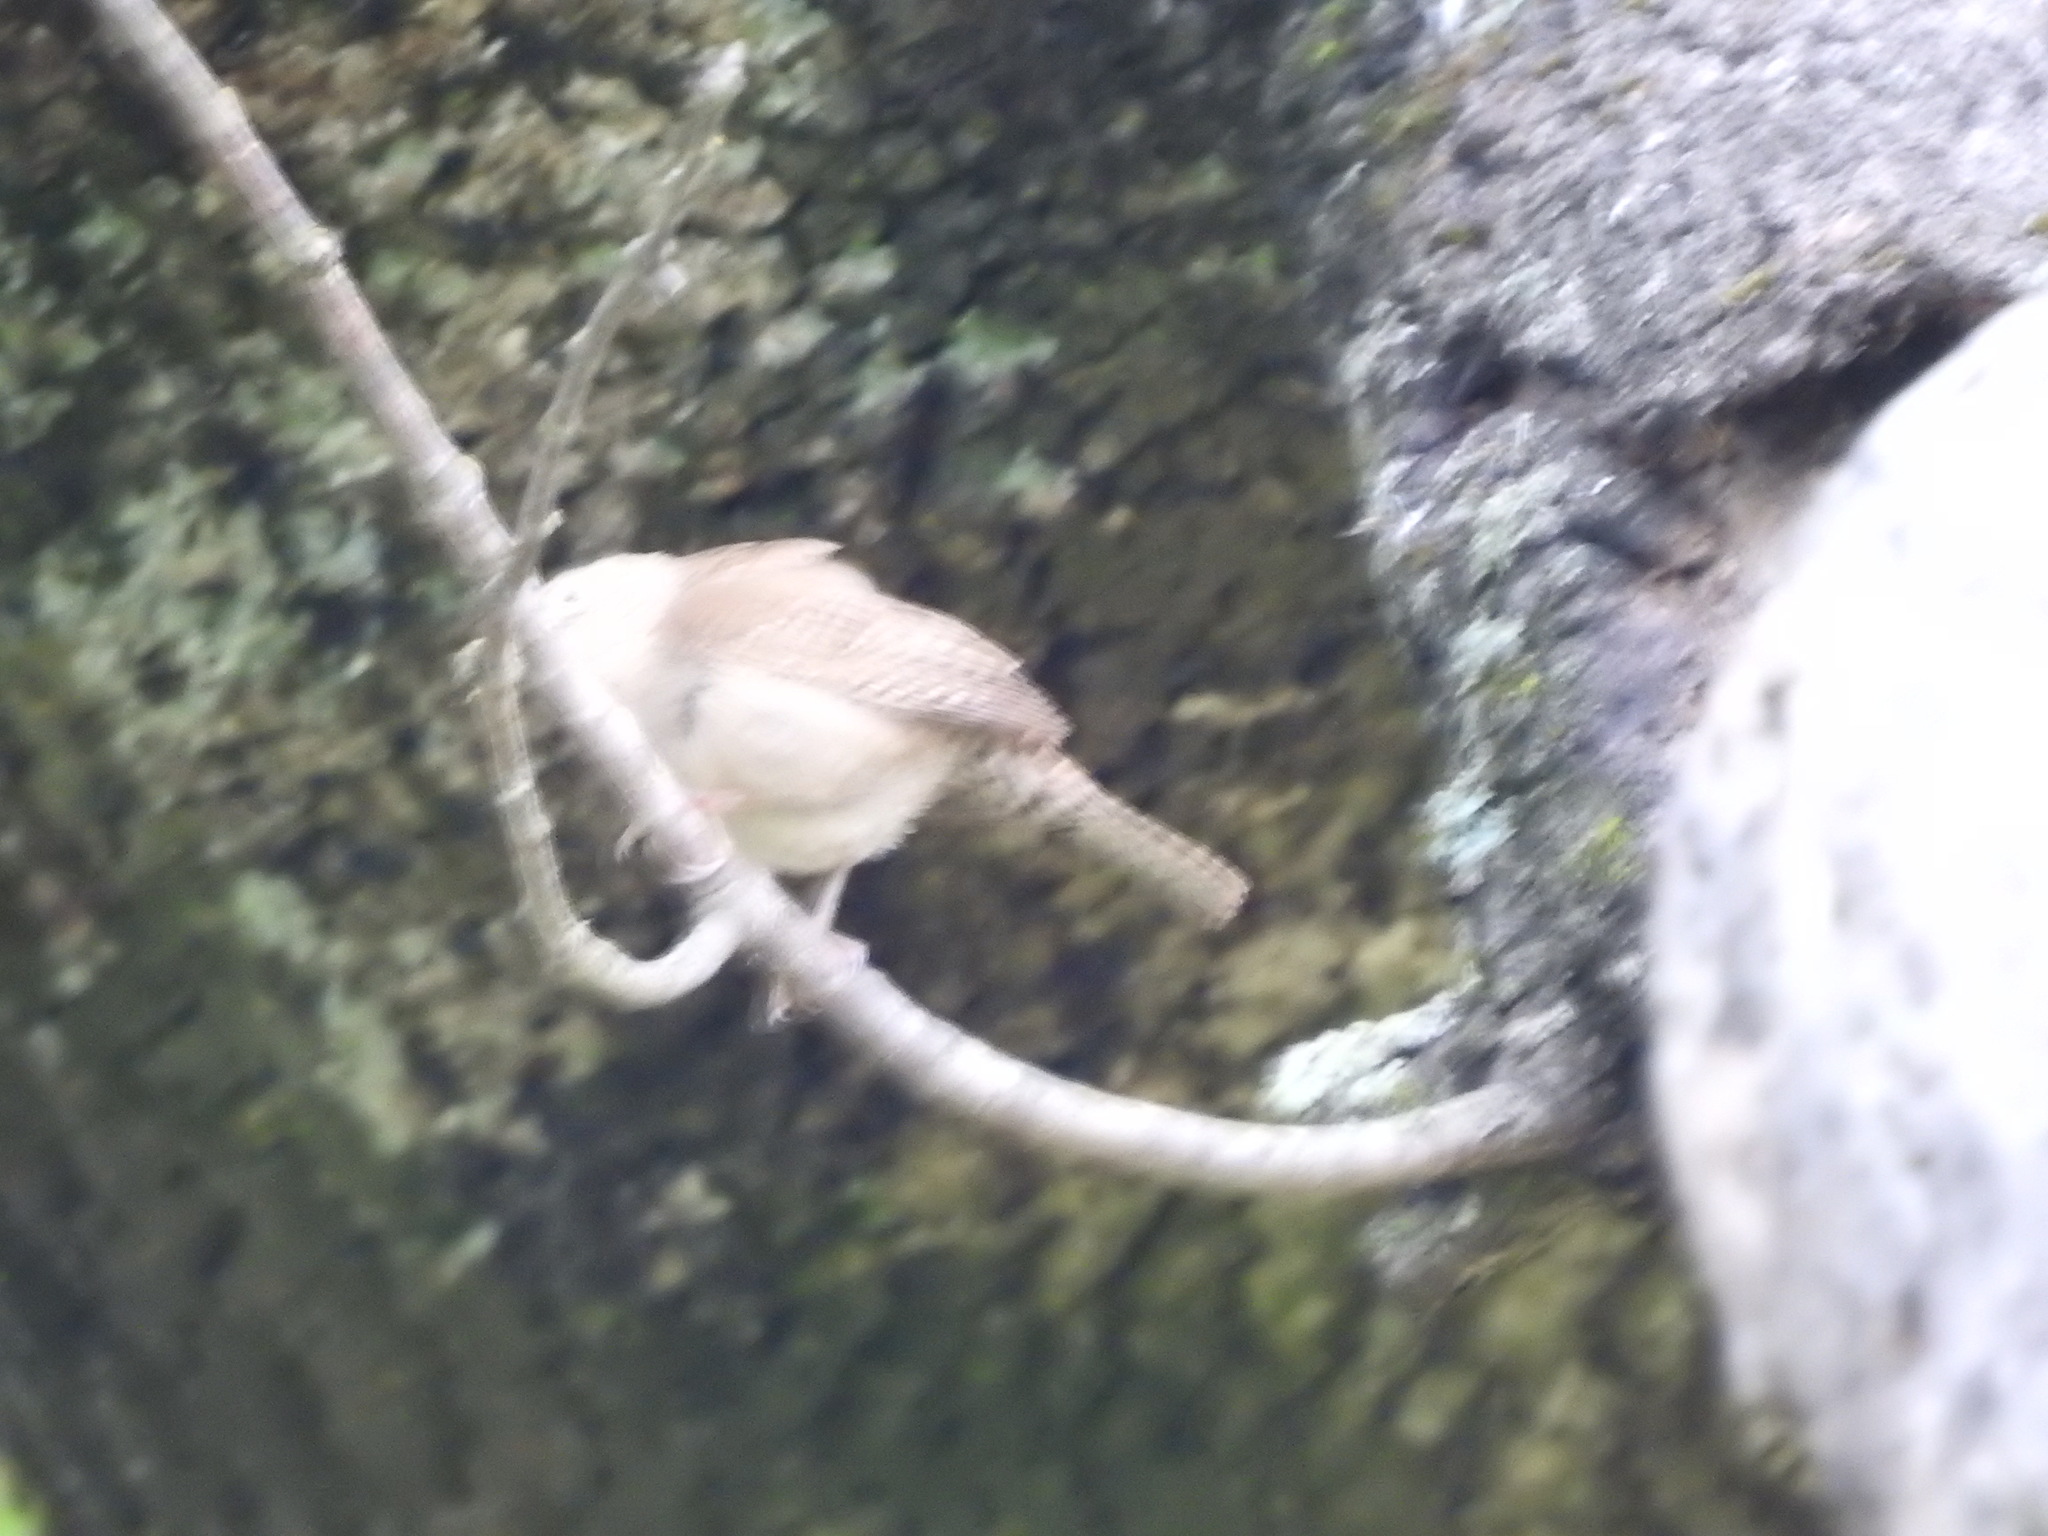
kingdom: Animalia
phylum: Chordata
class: Aves
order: Passeriformes
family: Troglodytidae
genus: Troglodytes
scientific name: Troglodytes aedon
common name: House wren
